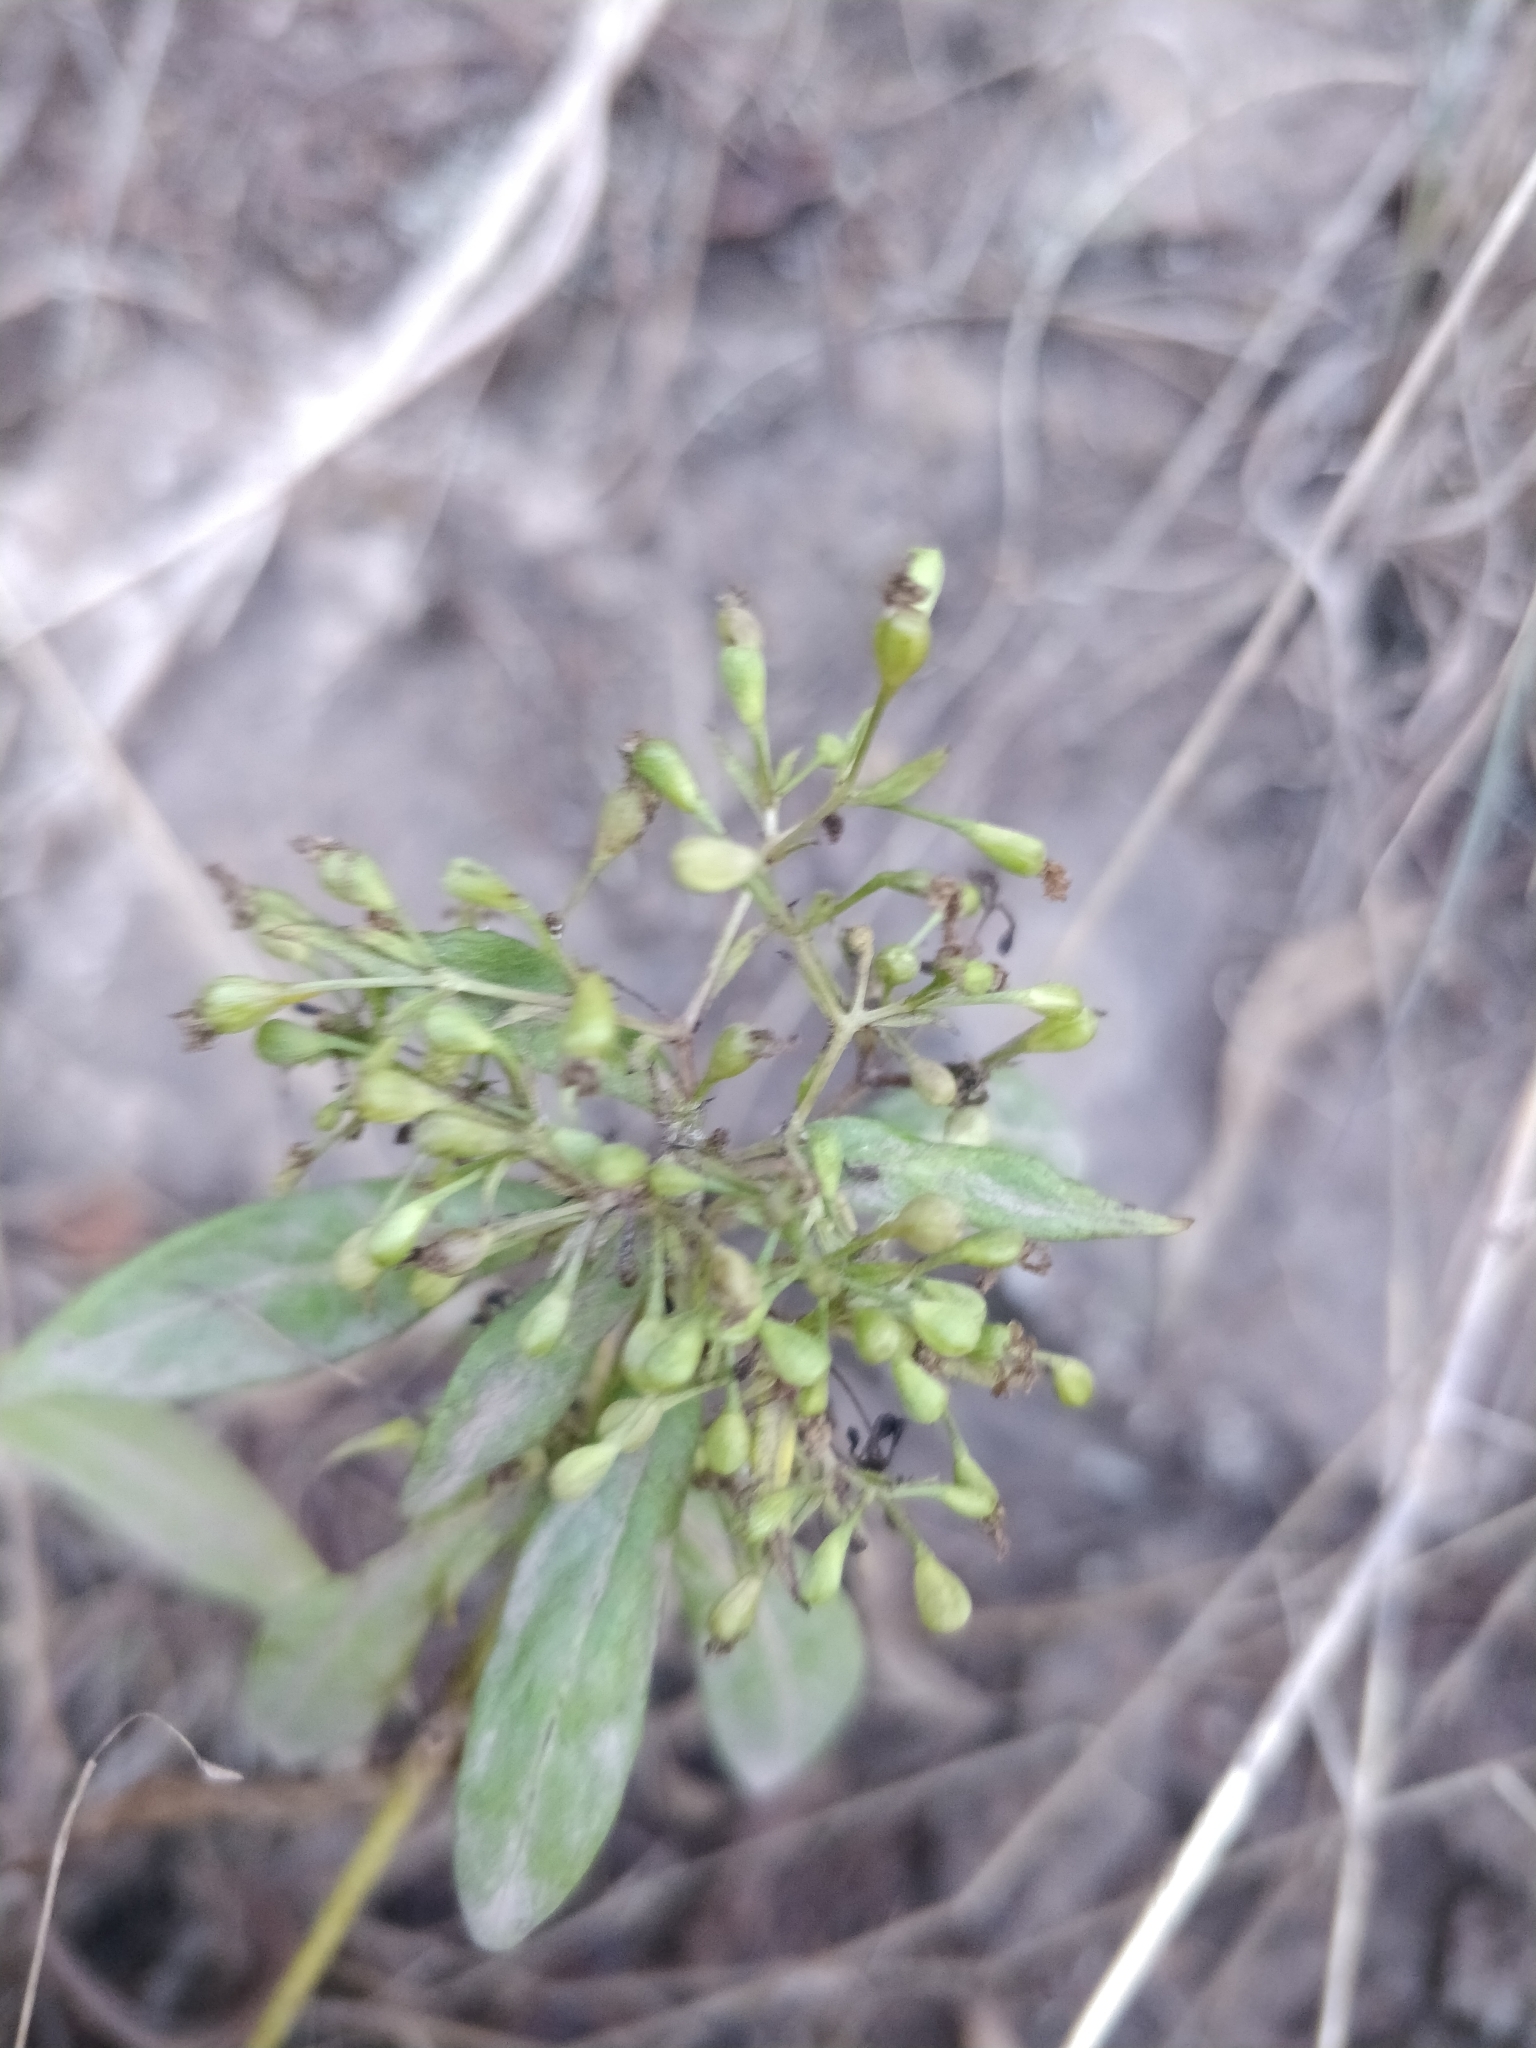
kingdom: Plantae
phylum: Tracheophyta
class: Magnoliopsida
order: Gentianales
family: Rubiaceae
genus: Phyllis
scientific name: Phyllis nobla
